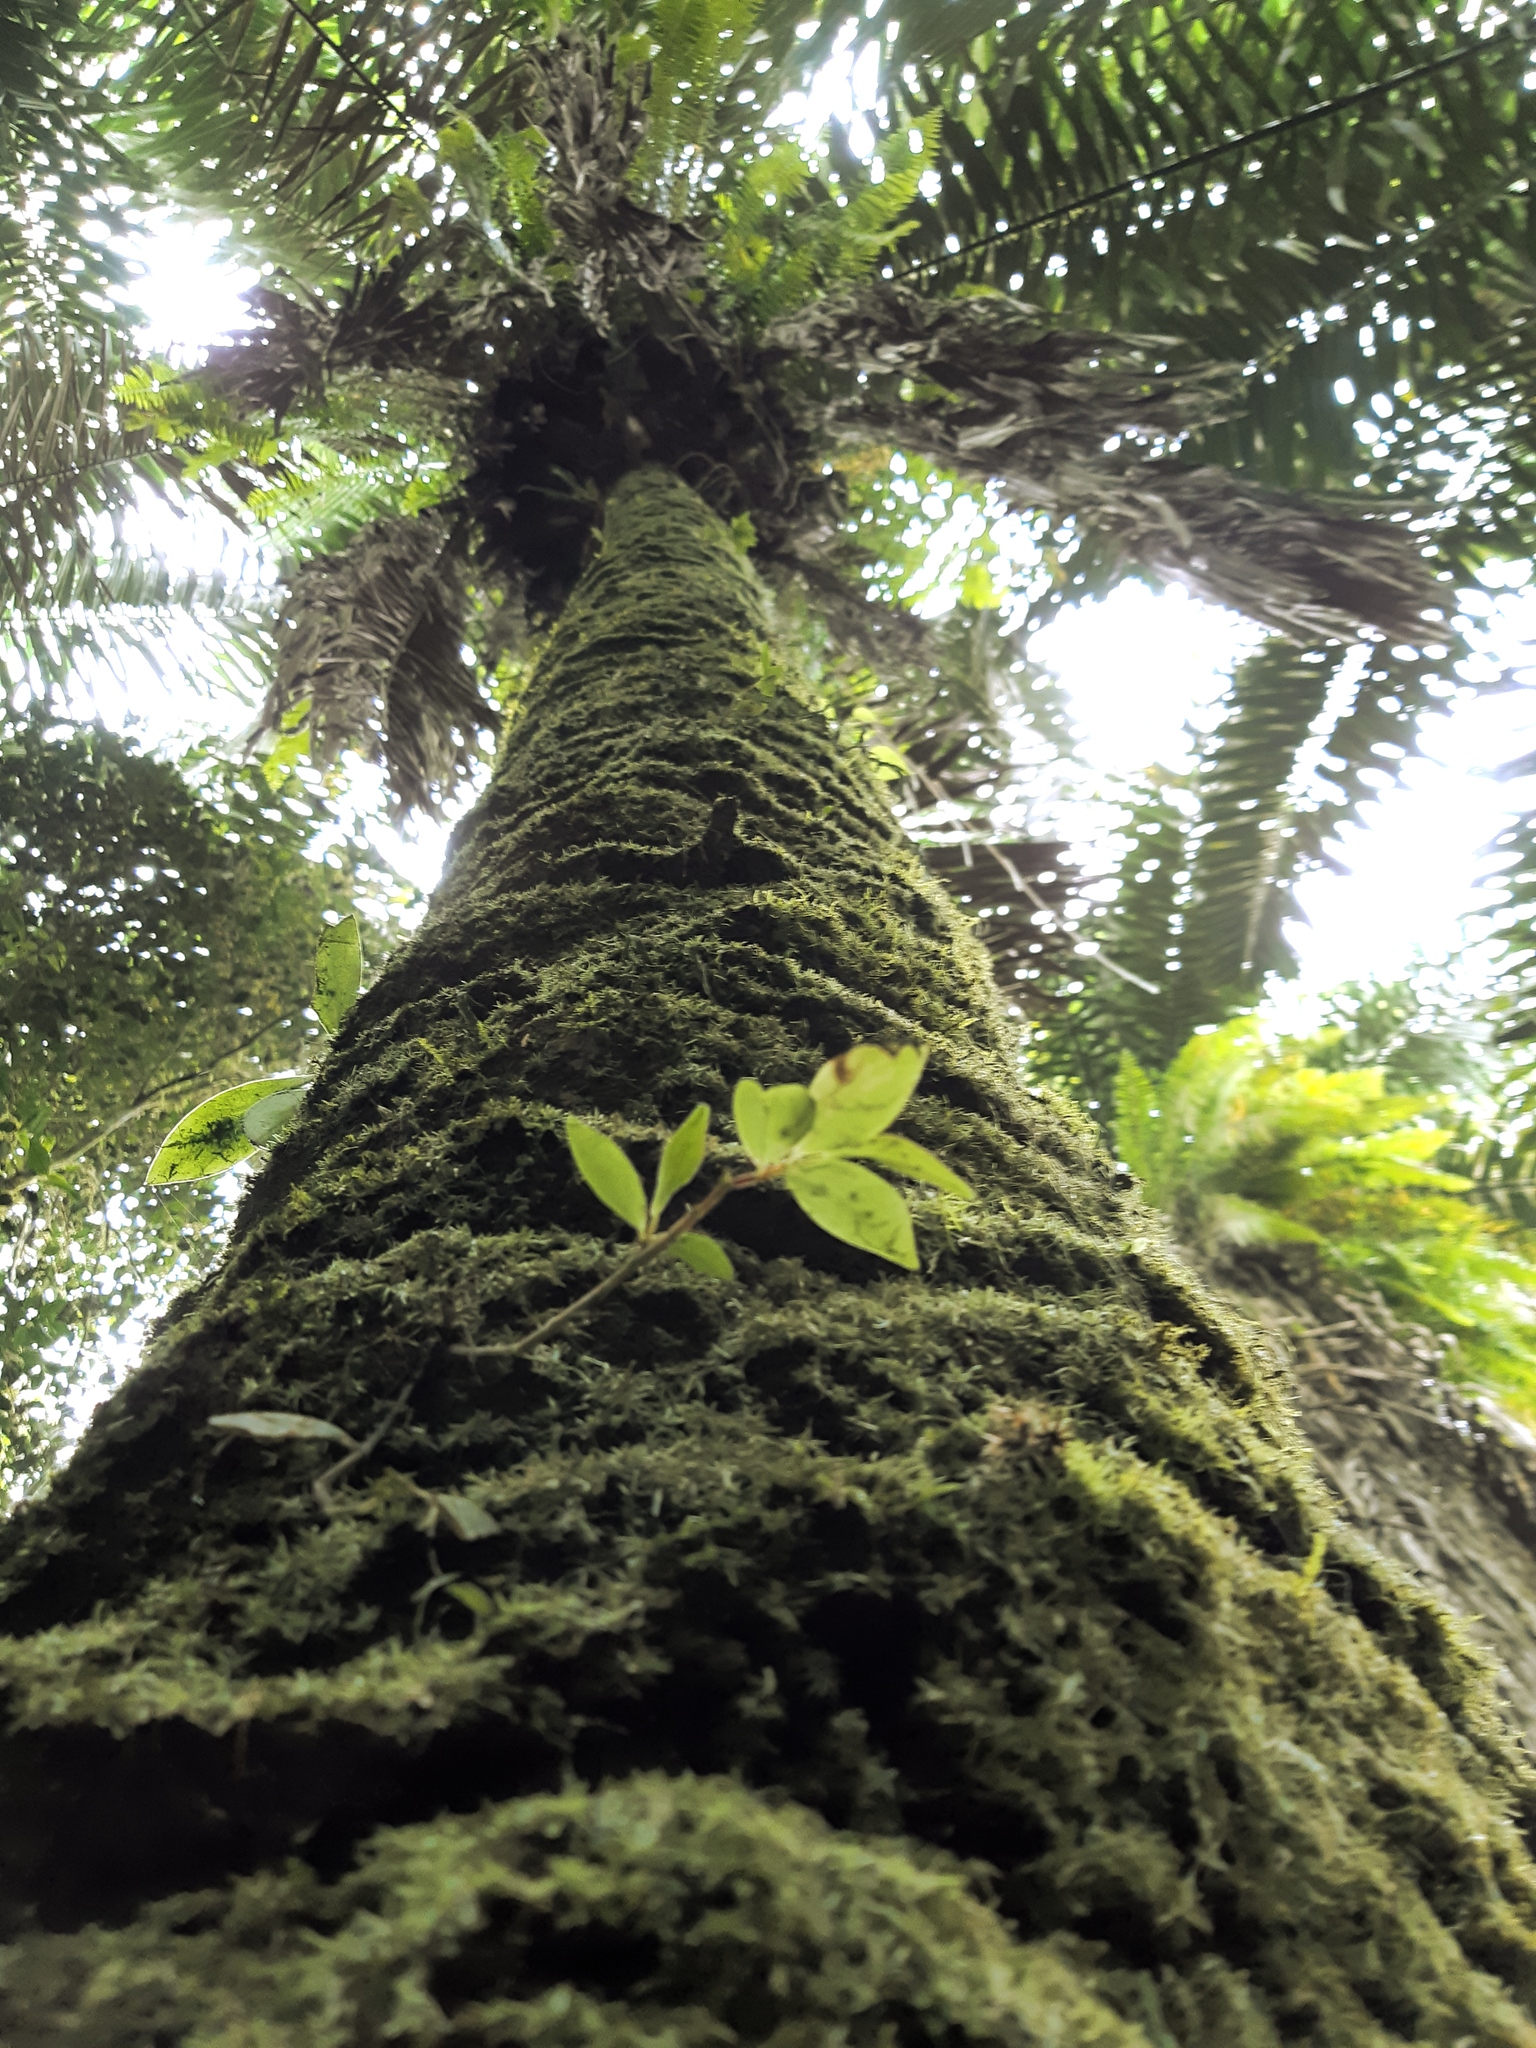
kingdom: Plantae
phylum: Tracheophyta
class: Liliopsida
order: Arecales
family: Arecaceae
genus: Phytelephas
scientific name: Phytelephas aequatorialis
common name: Ivory palm
